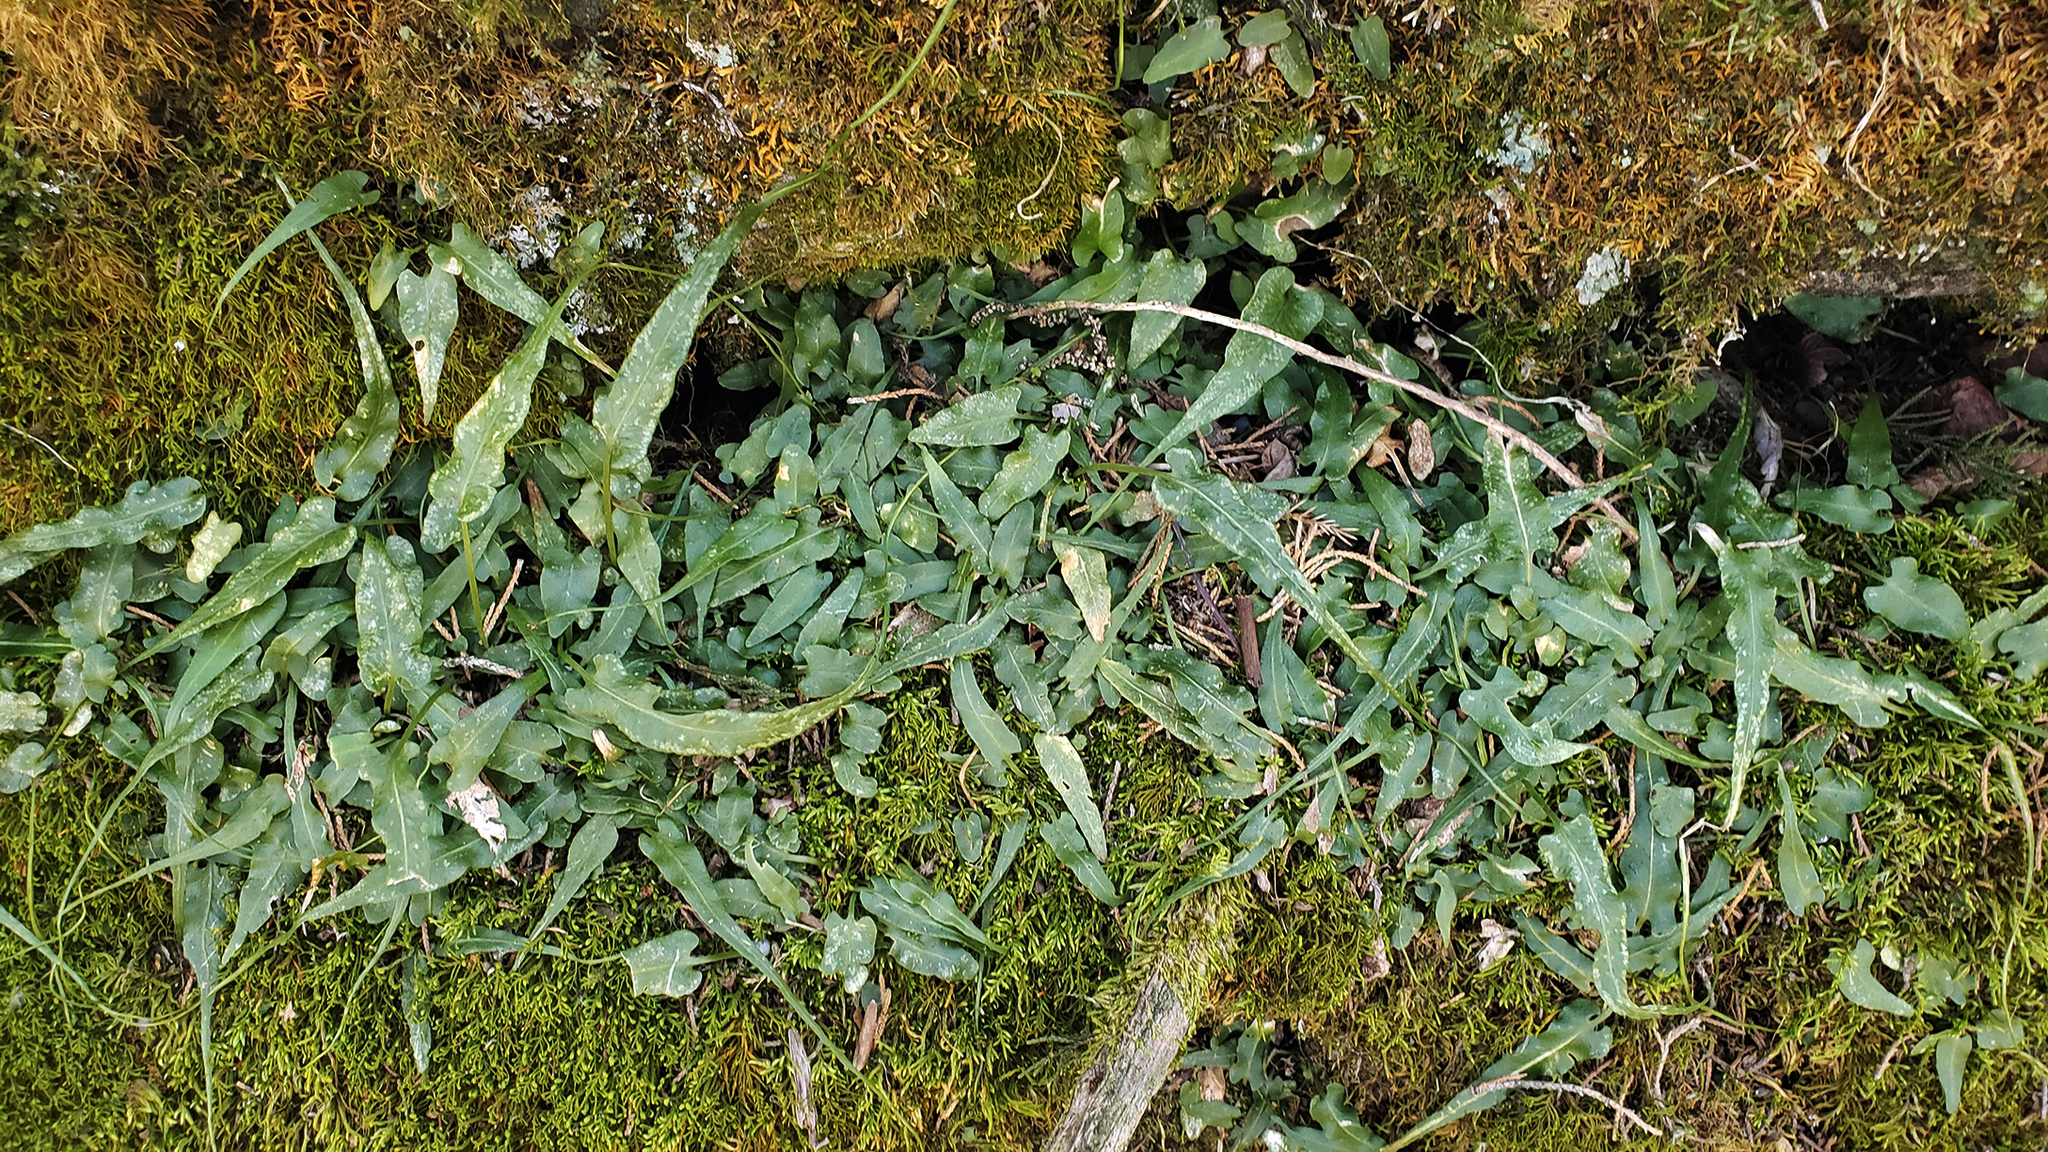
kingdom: Plantae
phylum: Tracheophyta
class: Polypodiopsida
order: Polypodiales
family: Aspleniaceae
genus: Asplenium
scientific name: Asplenium rhizophyllum
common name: Walking fern
